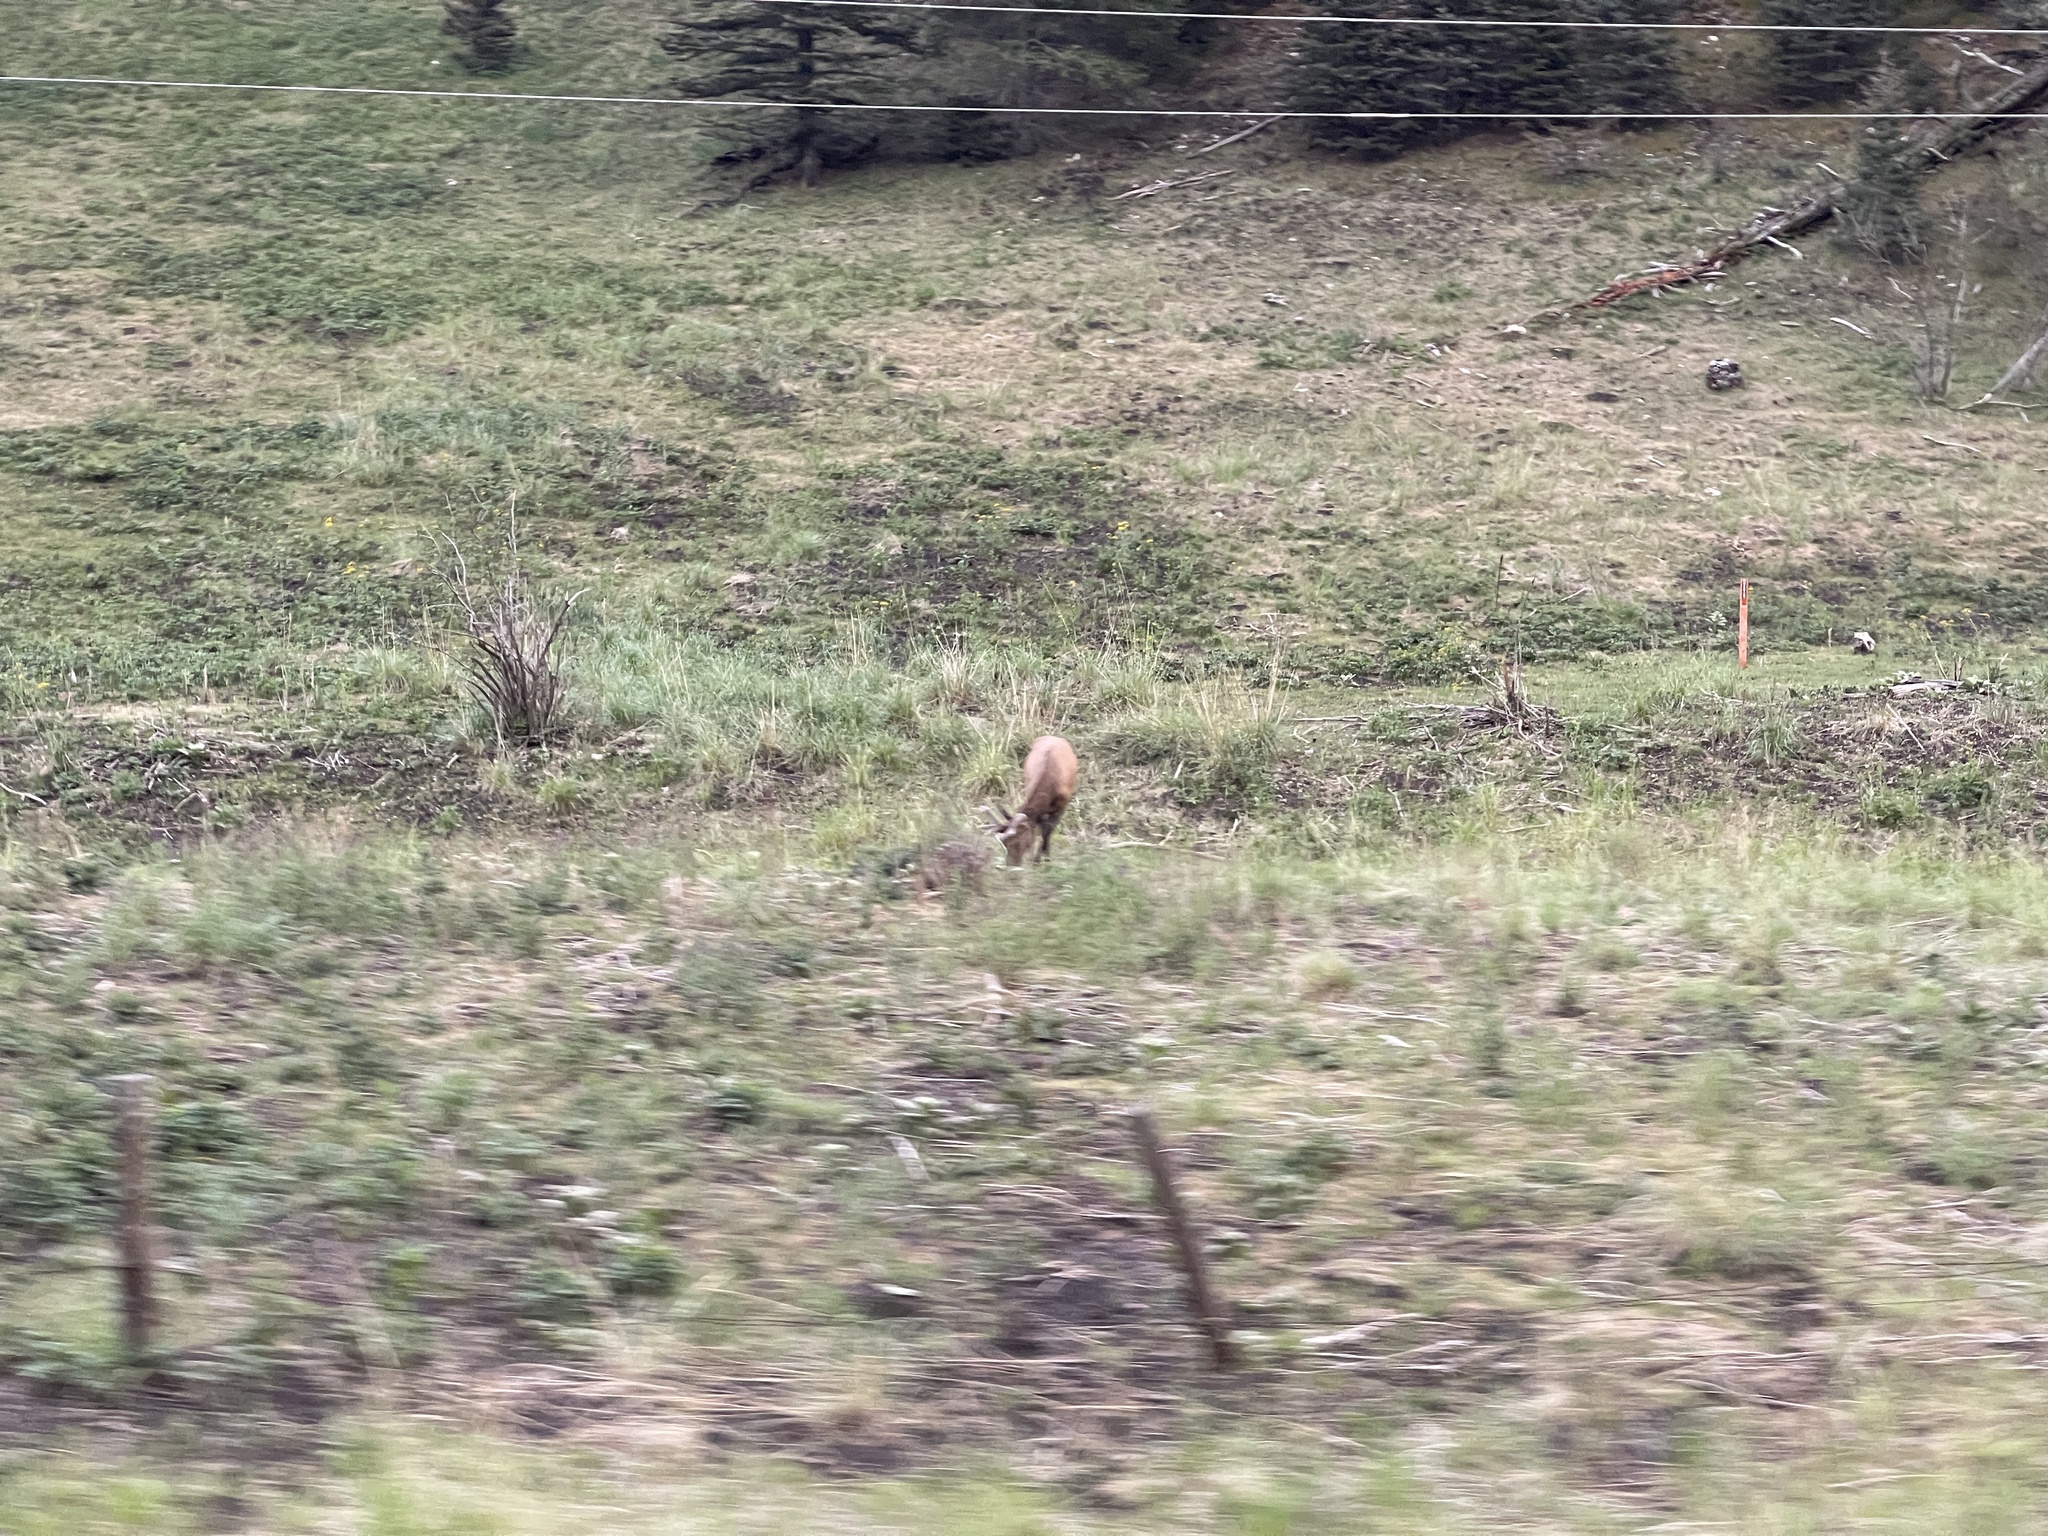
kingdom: Animalia
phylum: Chordata
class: Mammalia
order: Artiodactyla
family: Cervidae
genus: Cervus
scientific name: Cervus elaphus
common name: Red deer
